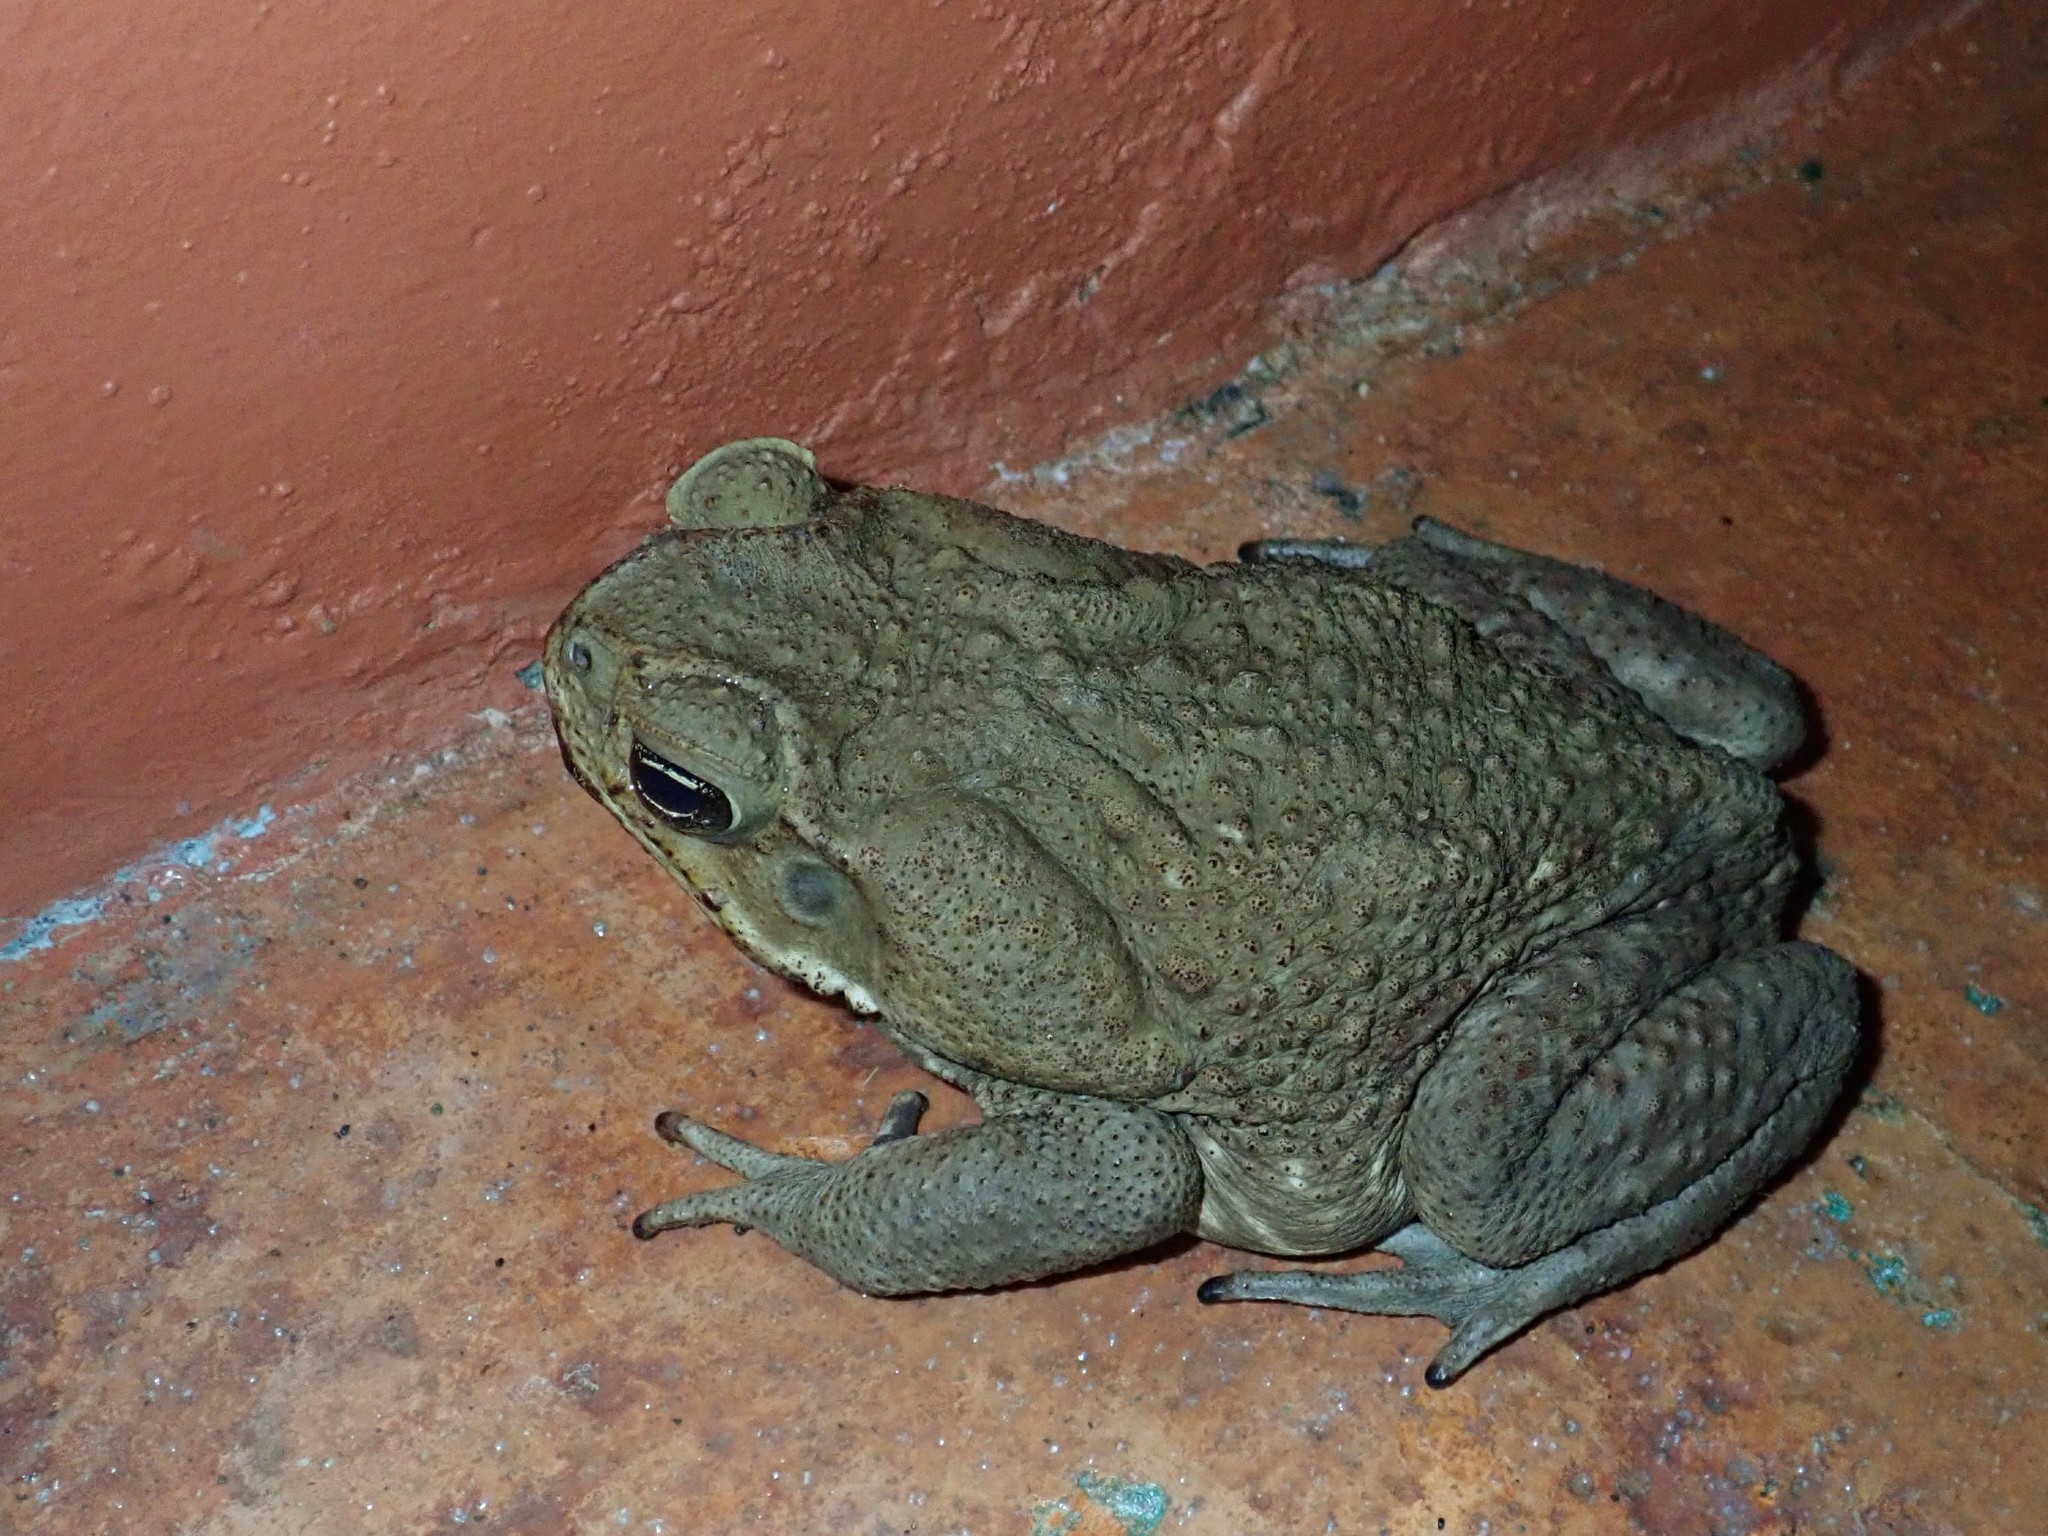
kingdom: Animalia
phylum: Chordata
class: Amphibia
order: Anura
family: Bufonidae
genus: Rhinella
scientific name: Rhinella horribilis
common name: Mesoamerican cane toad
